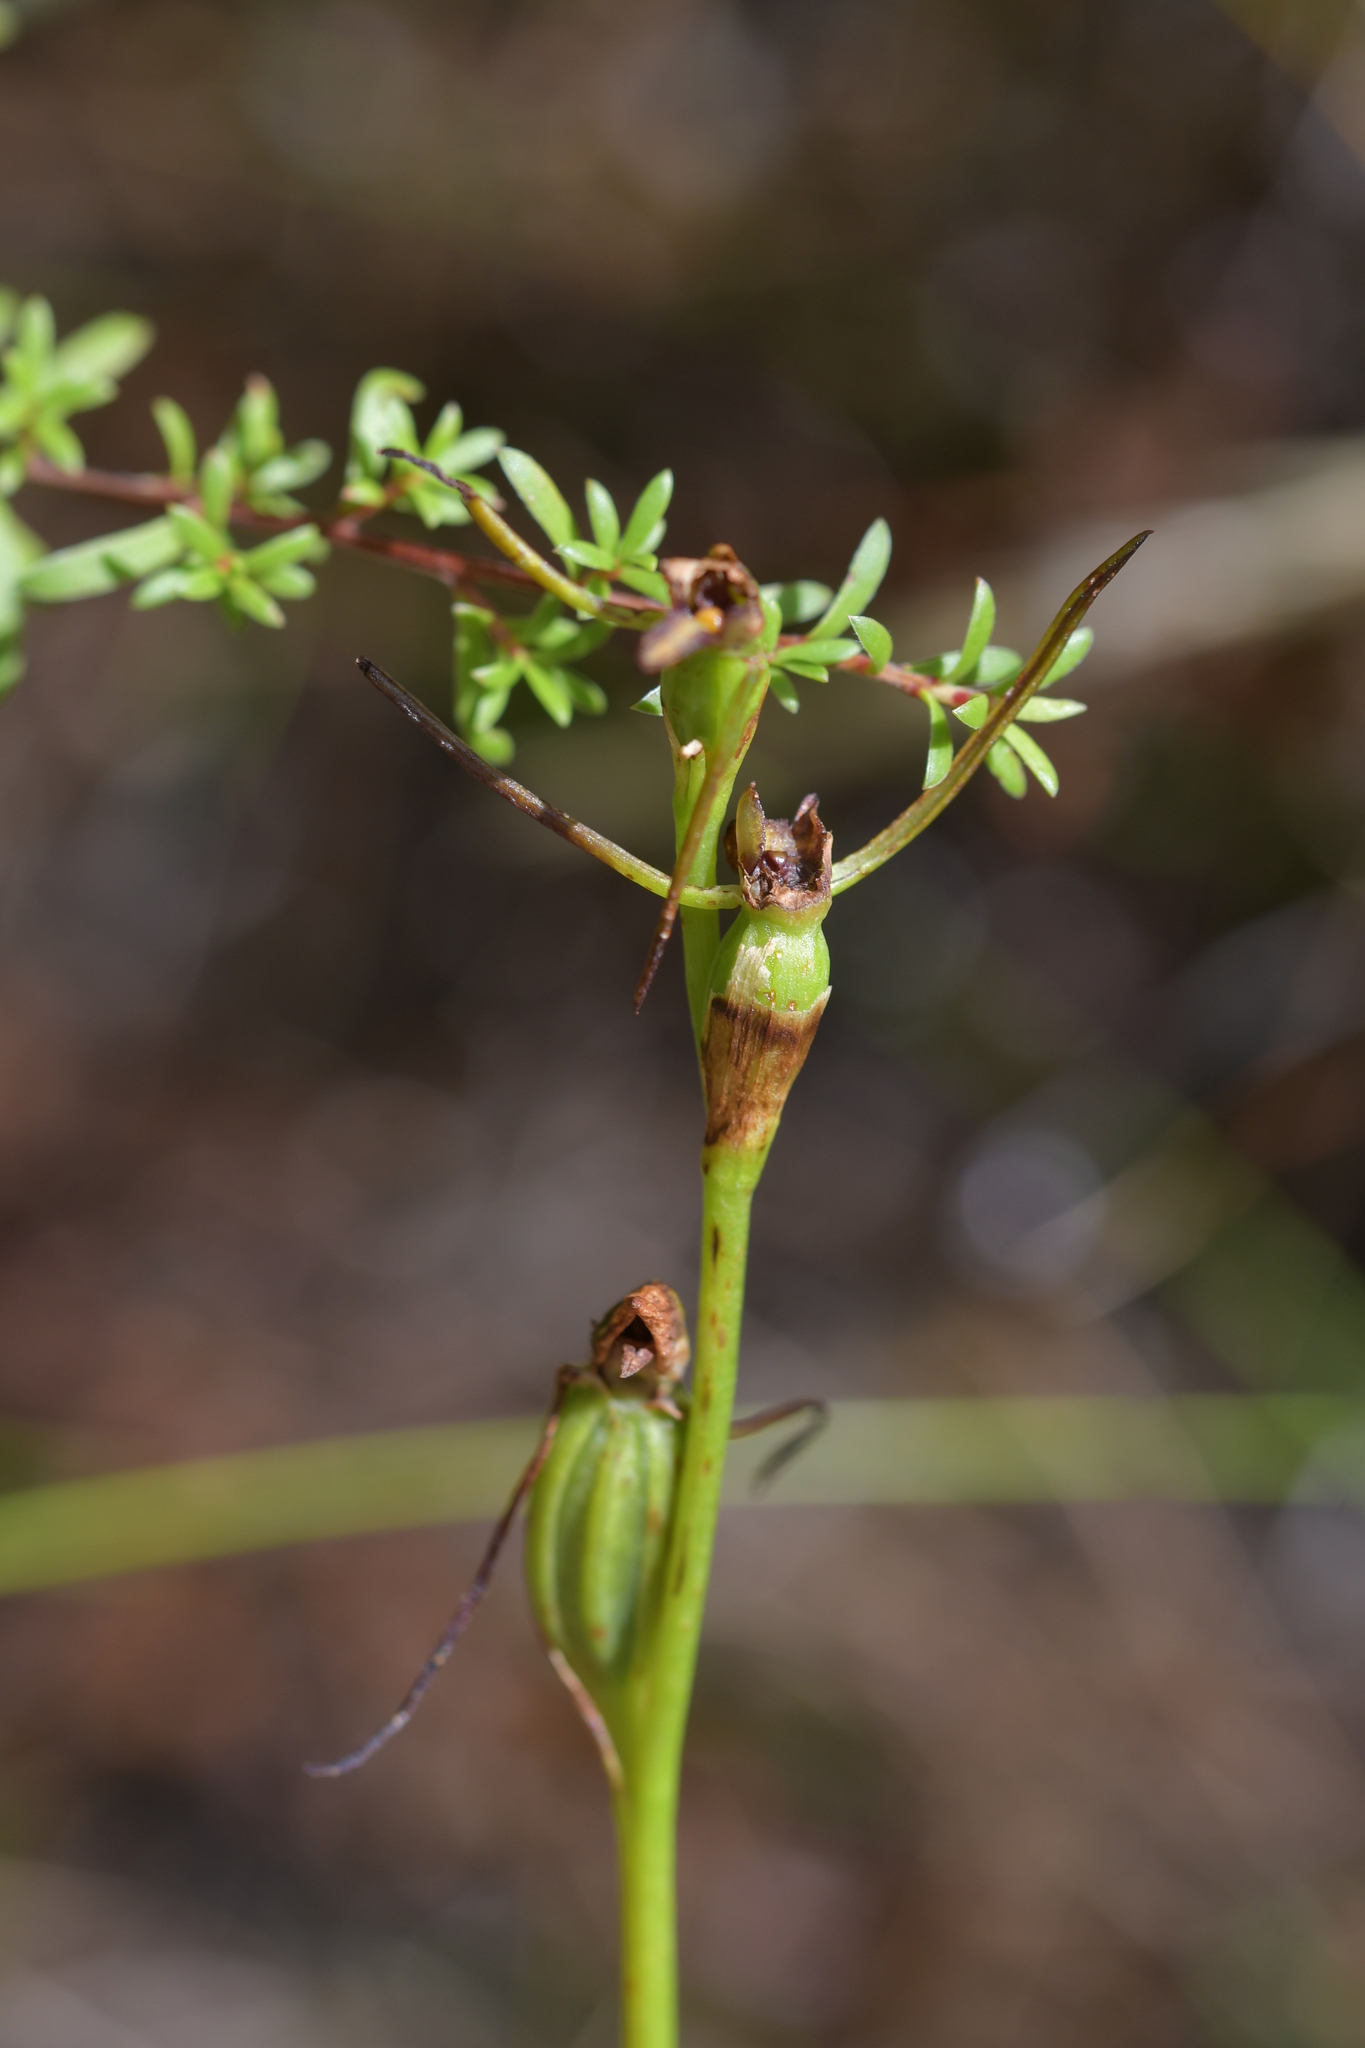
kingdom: Plantae
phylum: Tracheophyta
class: Liliopsida
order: Asparagales
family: Orchidaceae
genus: Orthoceras
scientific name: Orthoceras novae-zeelandiae
